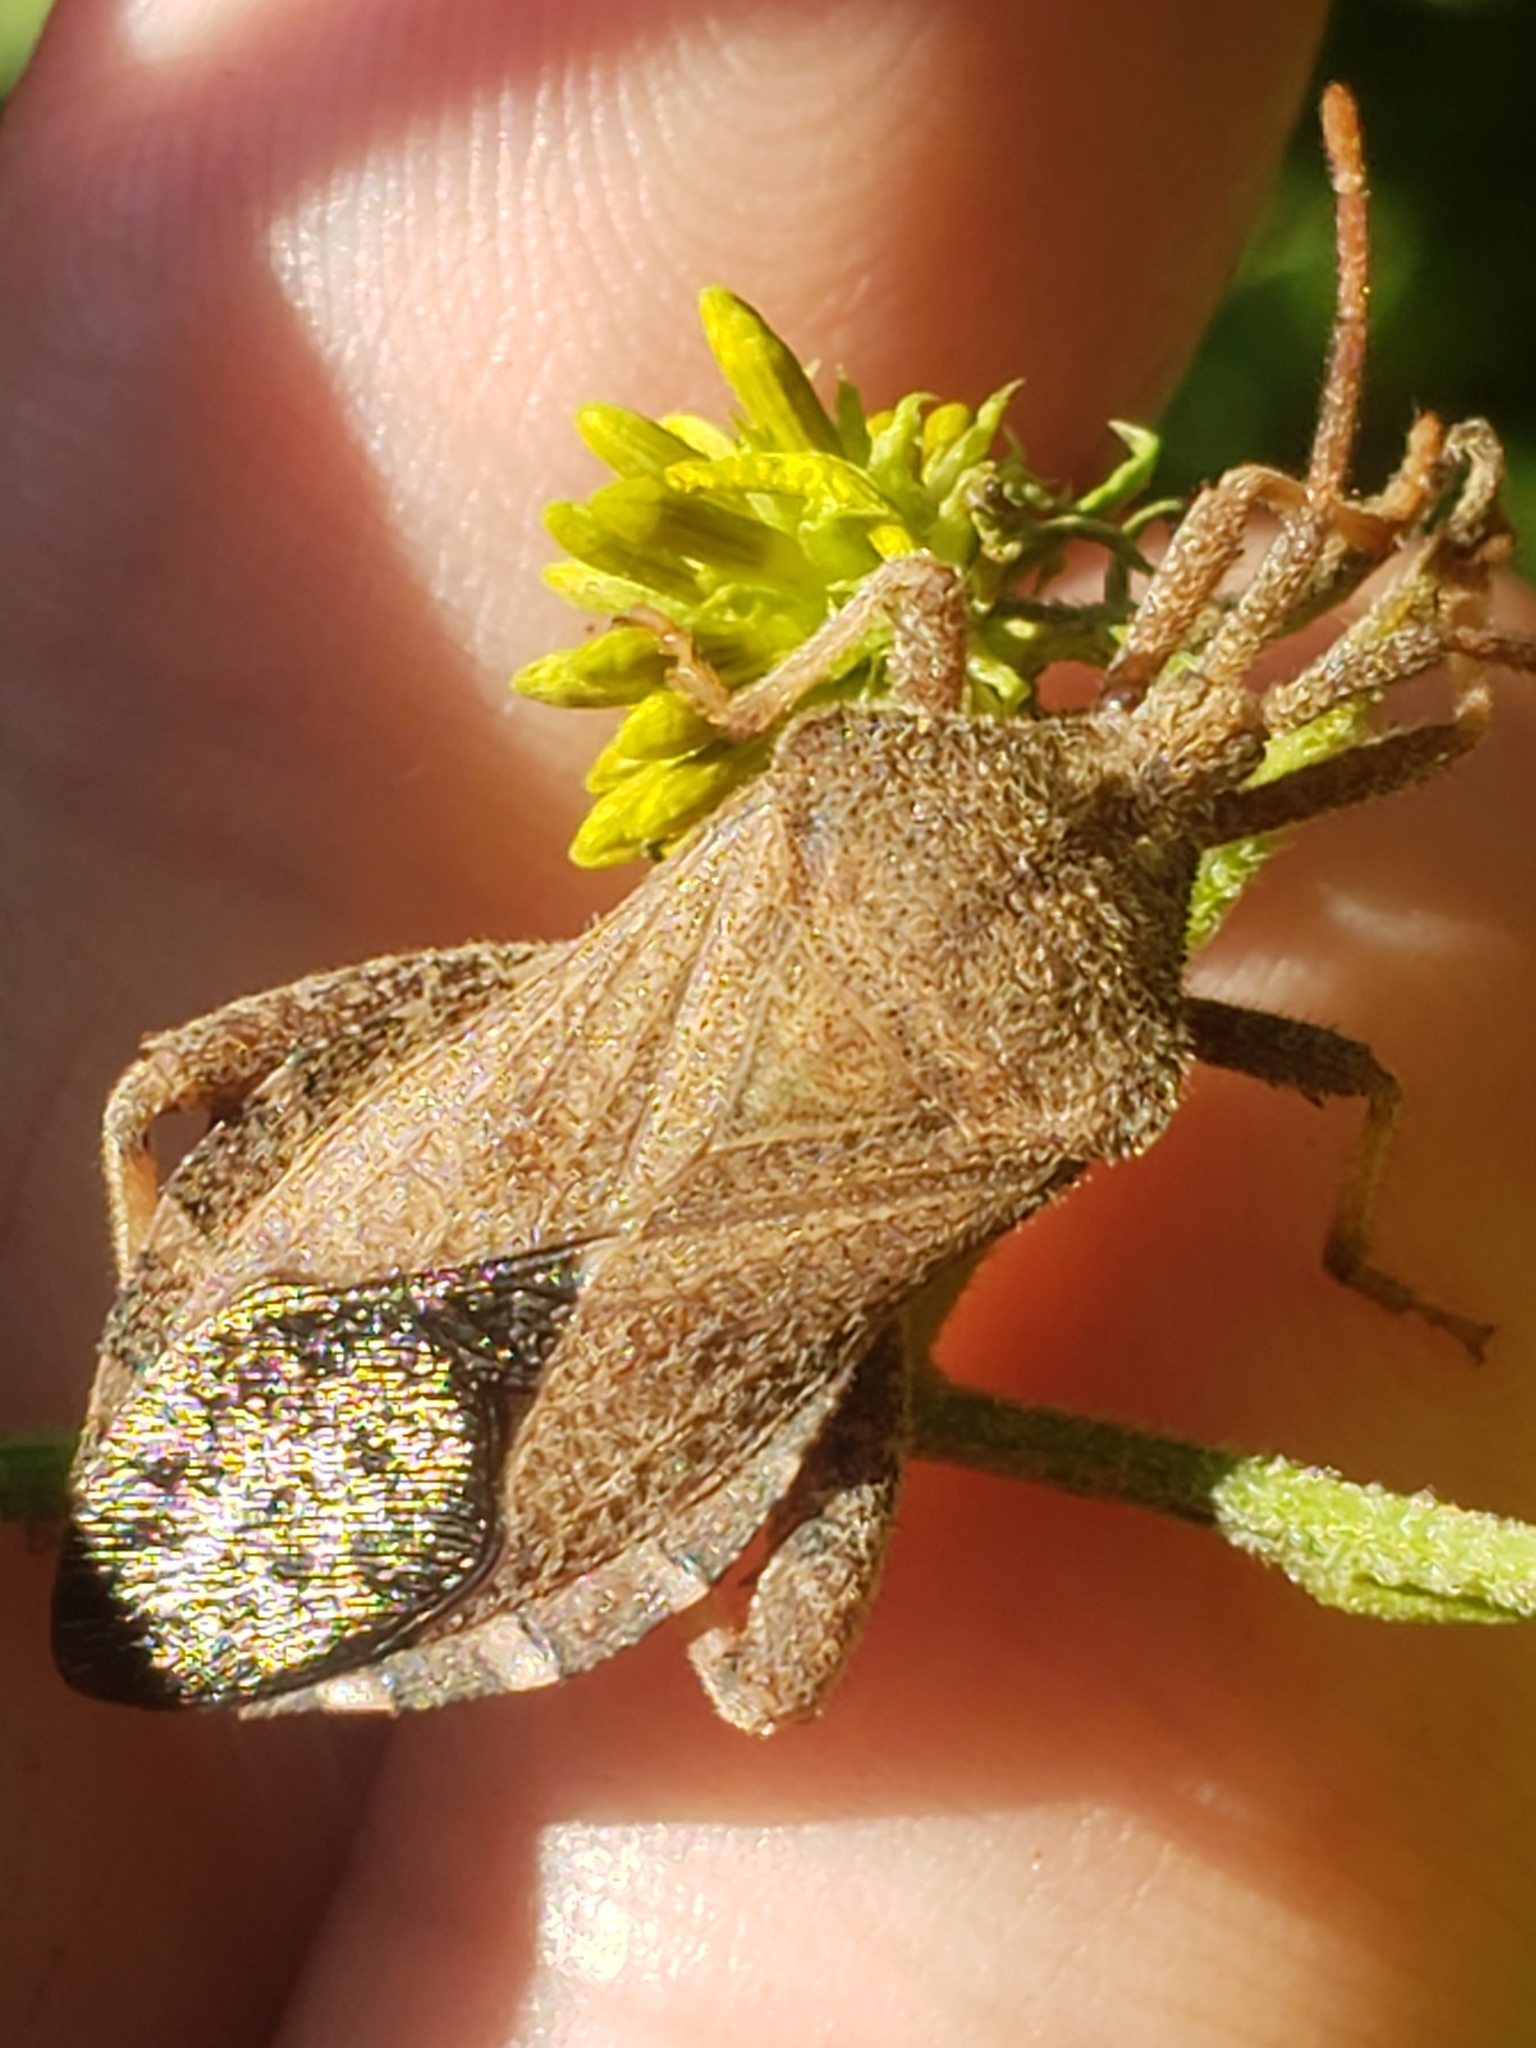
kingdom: Animalia
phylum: Arthropoda
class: Insecta
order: Hemiptera
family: Coreidae
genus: Piezogaster
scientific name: Piezogaster calcarator
